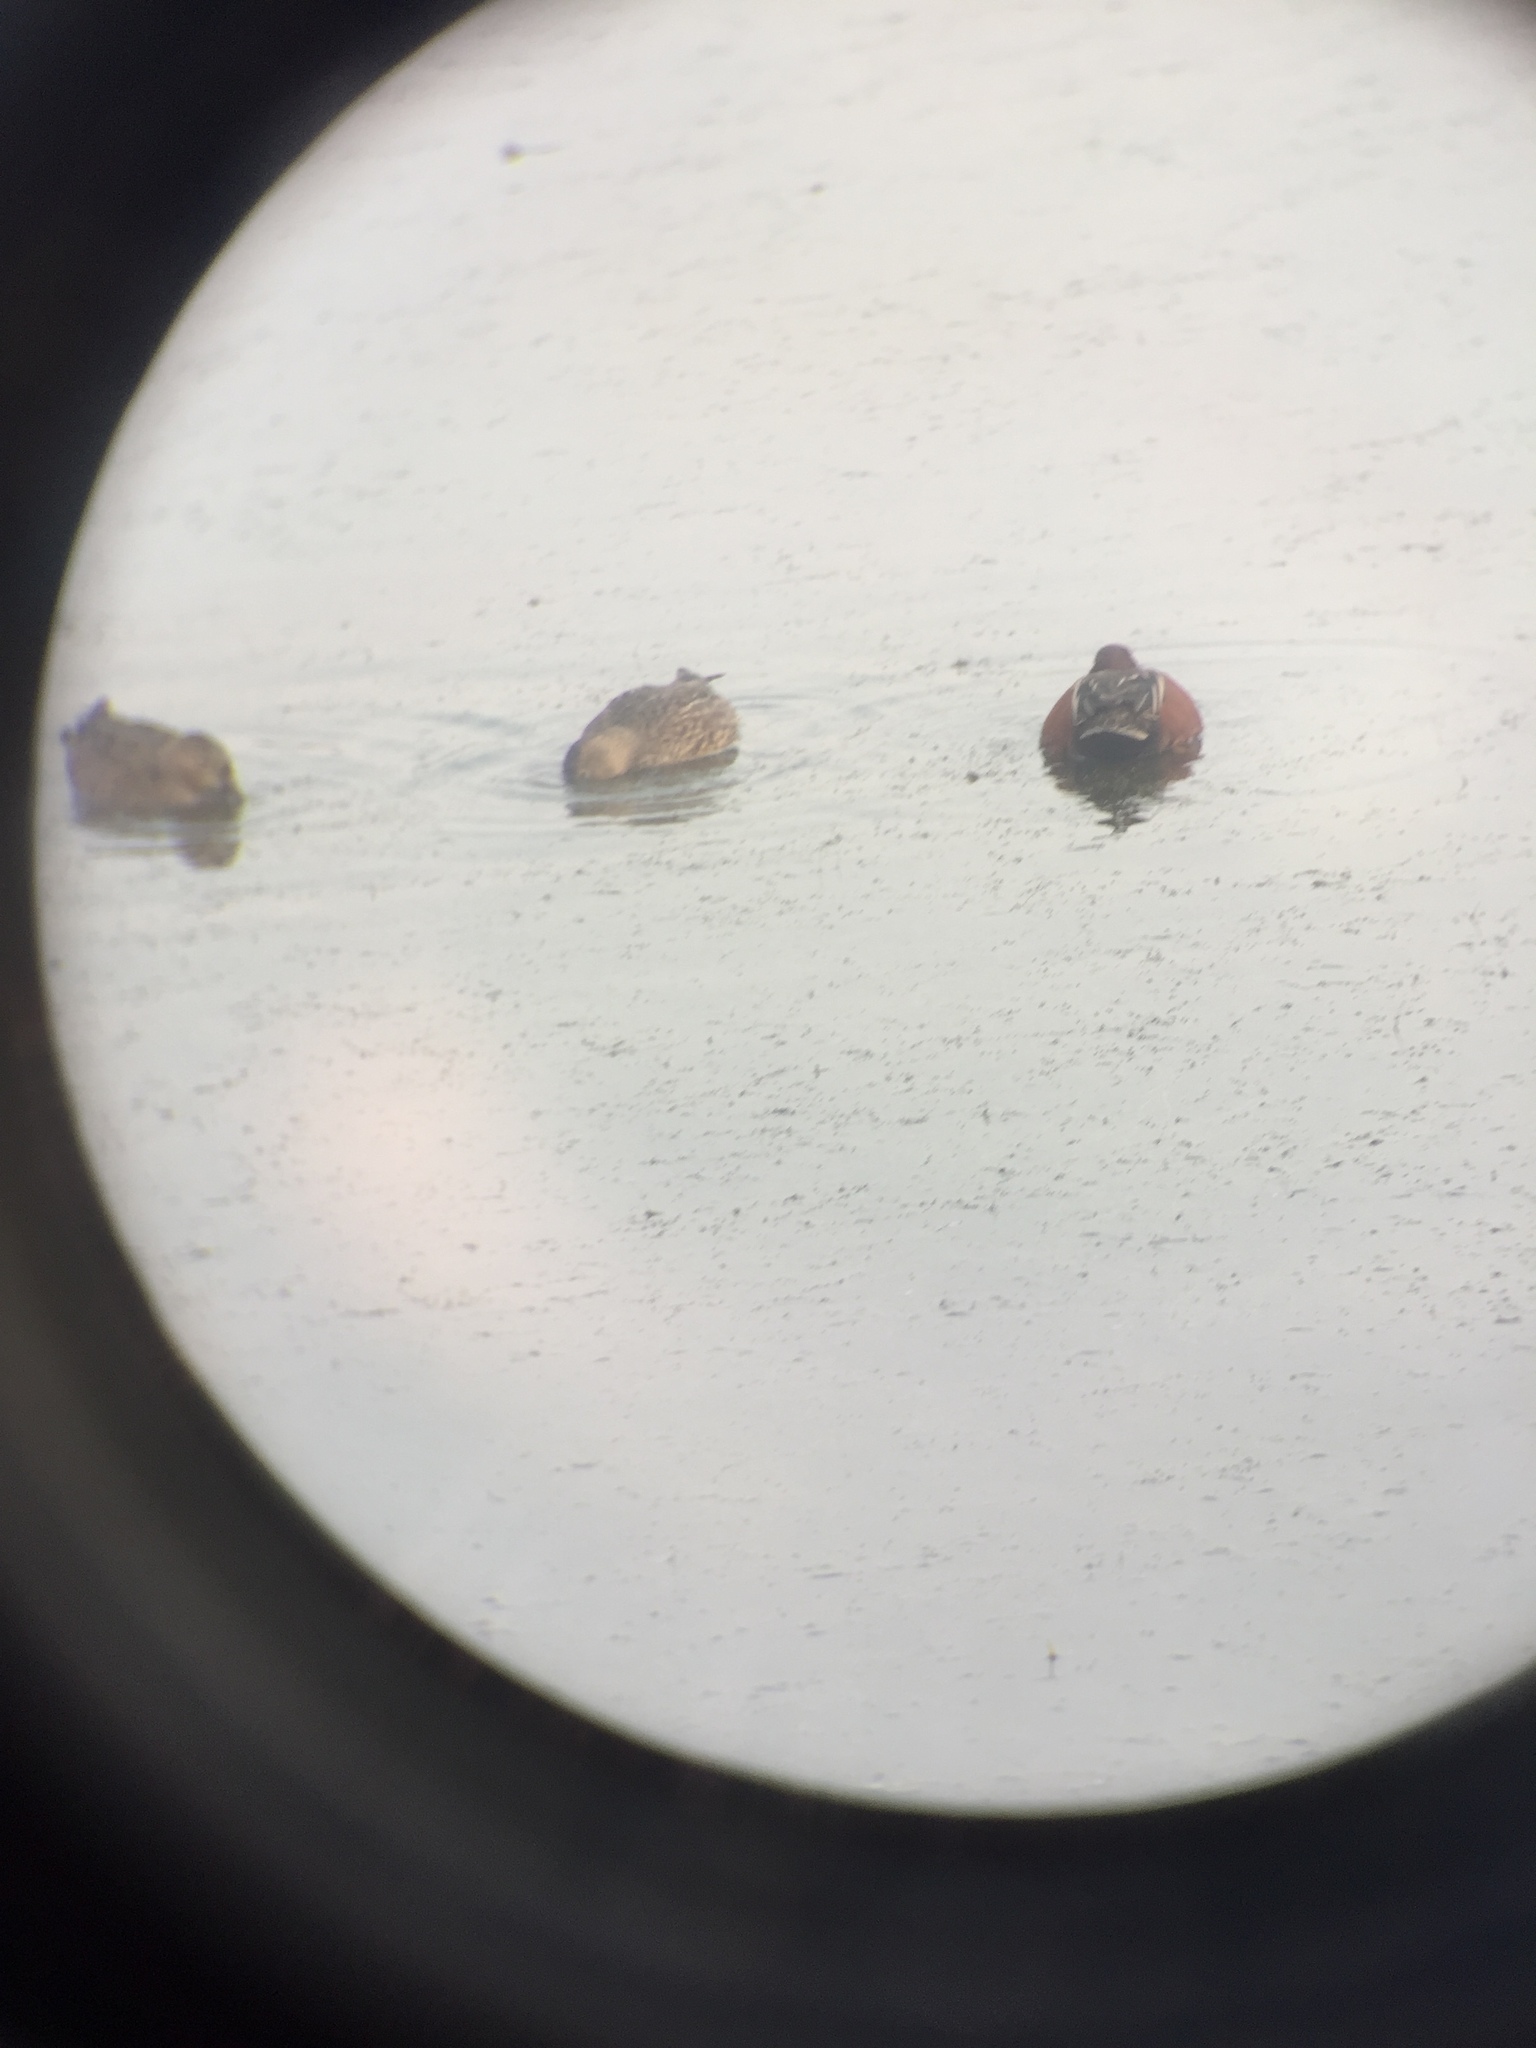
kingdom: Animalia
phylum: Chordata
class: Aves
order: Anseriformes
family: Anatidae
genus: Spatula
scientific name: Spatula cyanoptera
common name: Cinnamon teal
